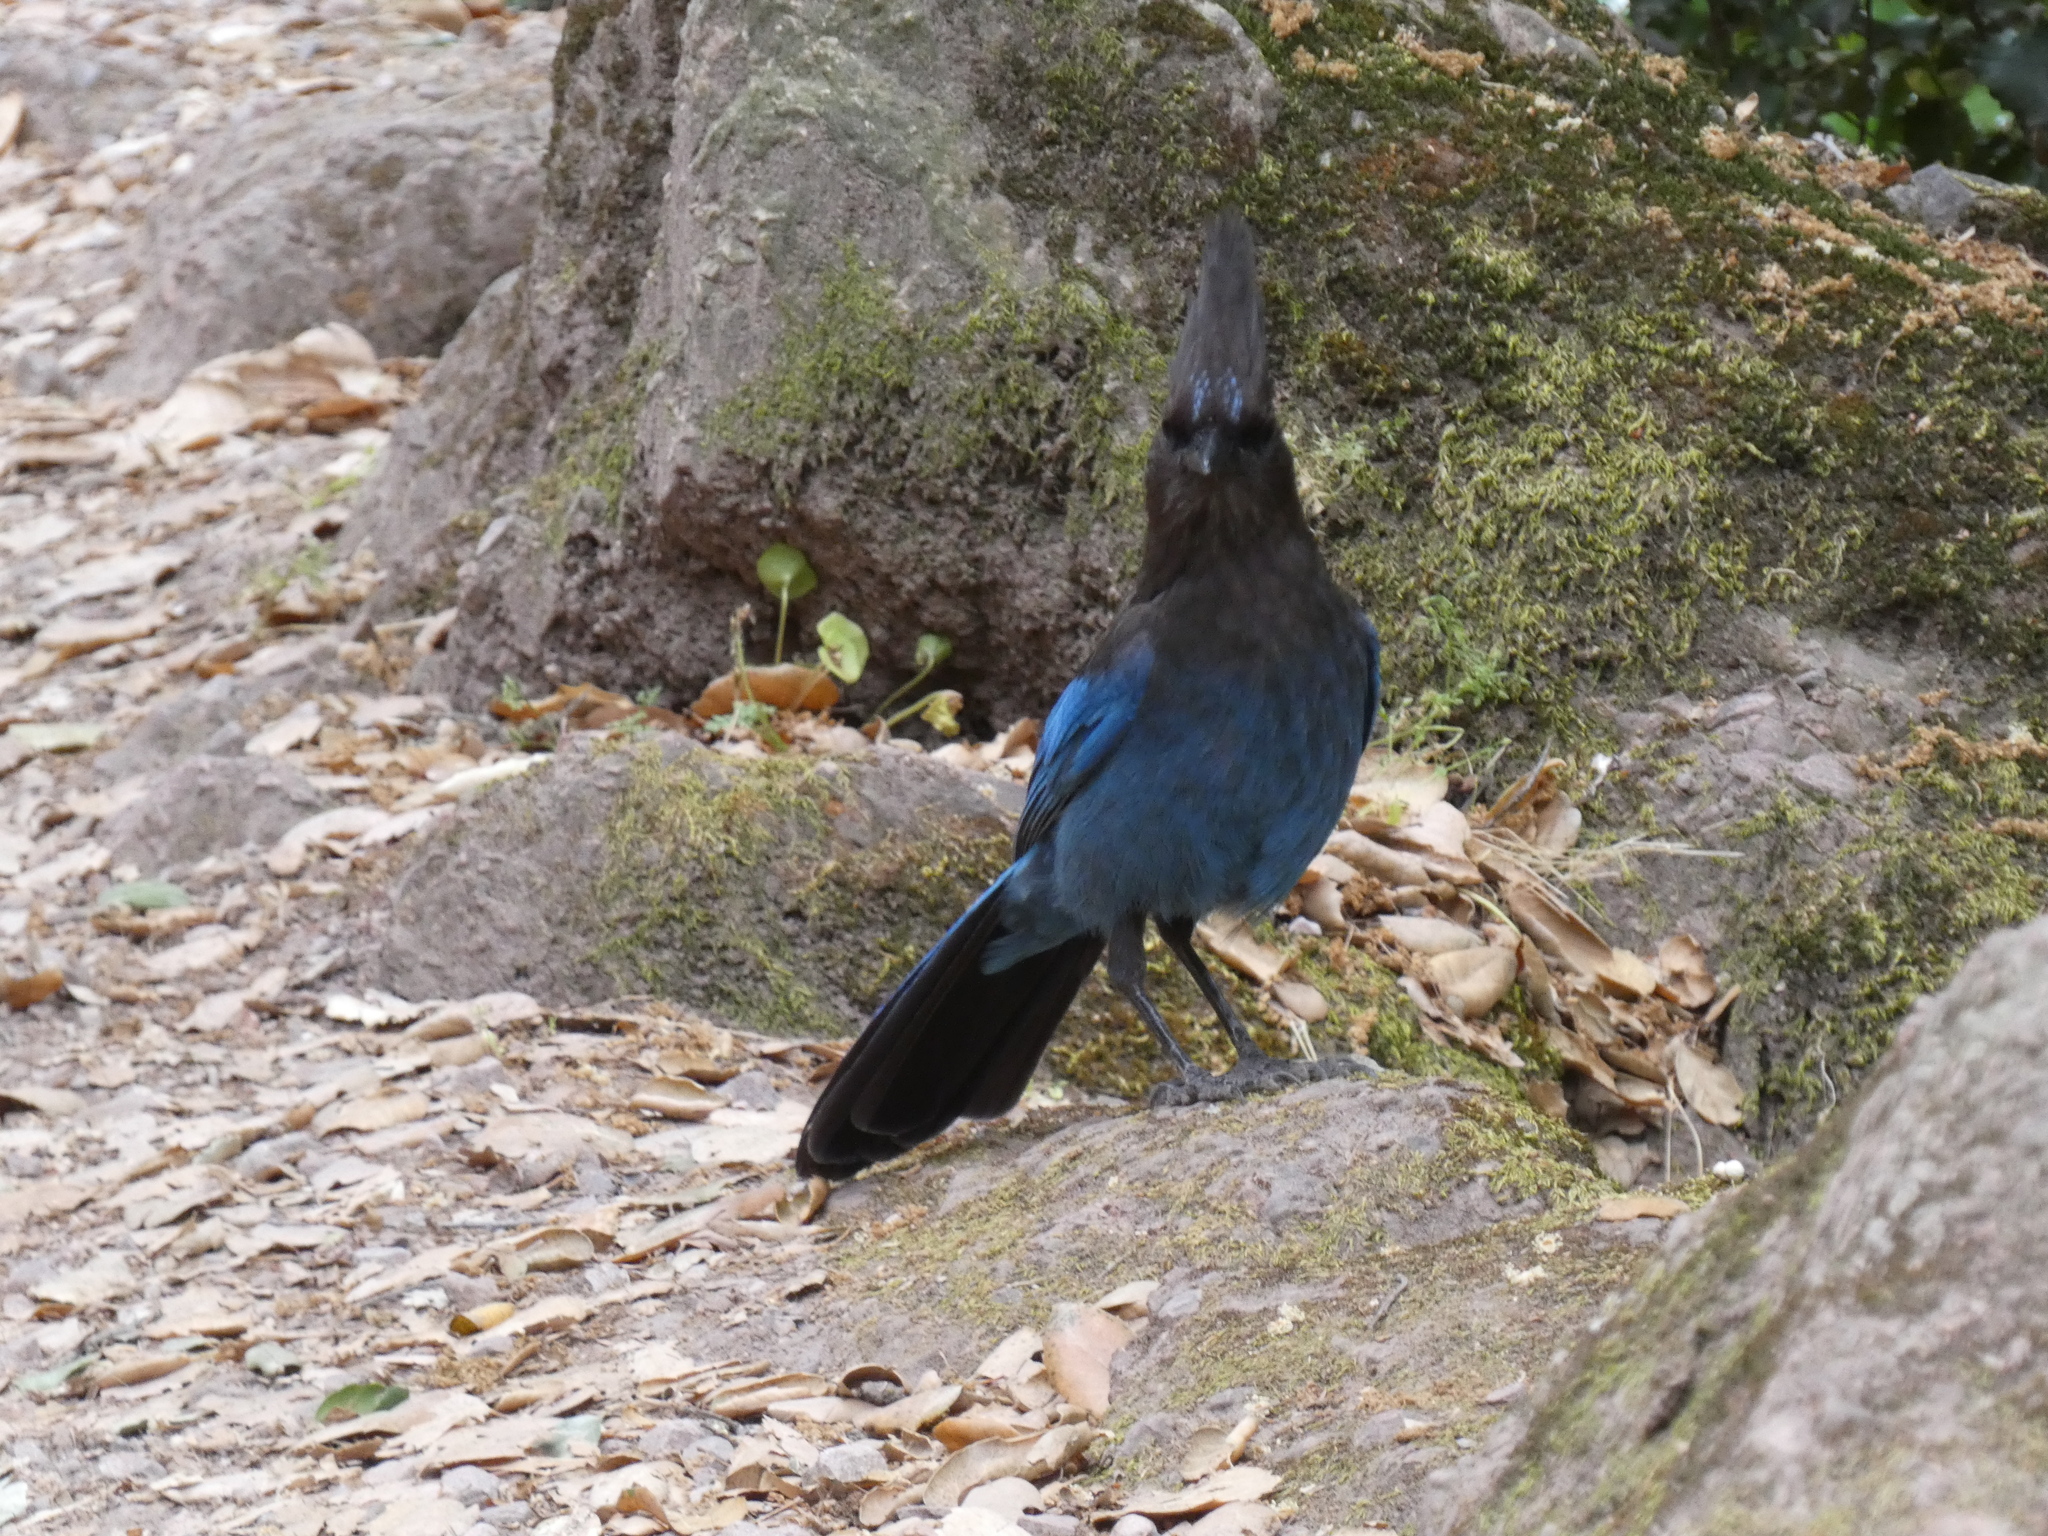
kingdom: Animalia
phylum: Chordata
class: Aves
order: Passeriformes
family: Corvidae
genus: Cyanocitta
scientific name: Cyanocitta stelleri
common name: Steller's jay
